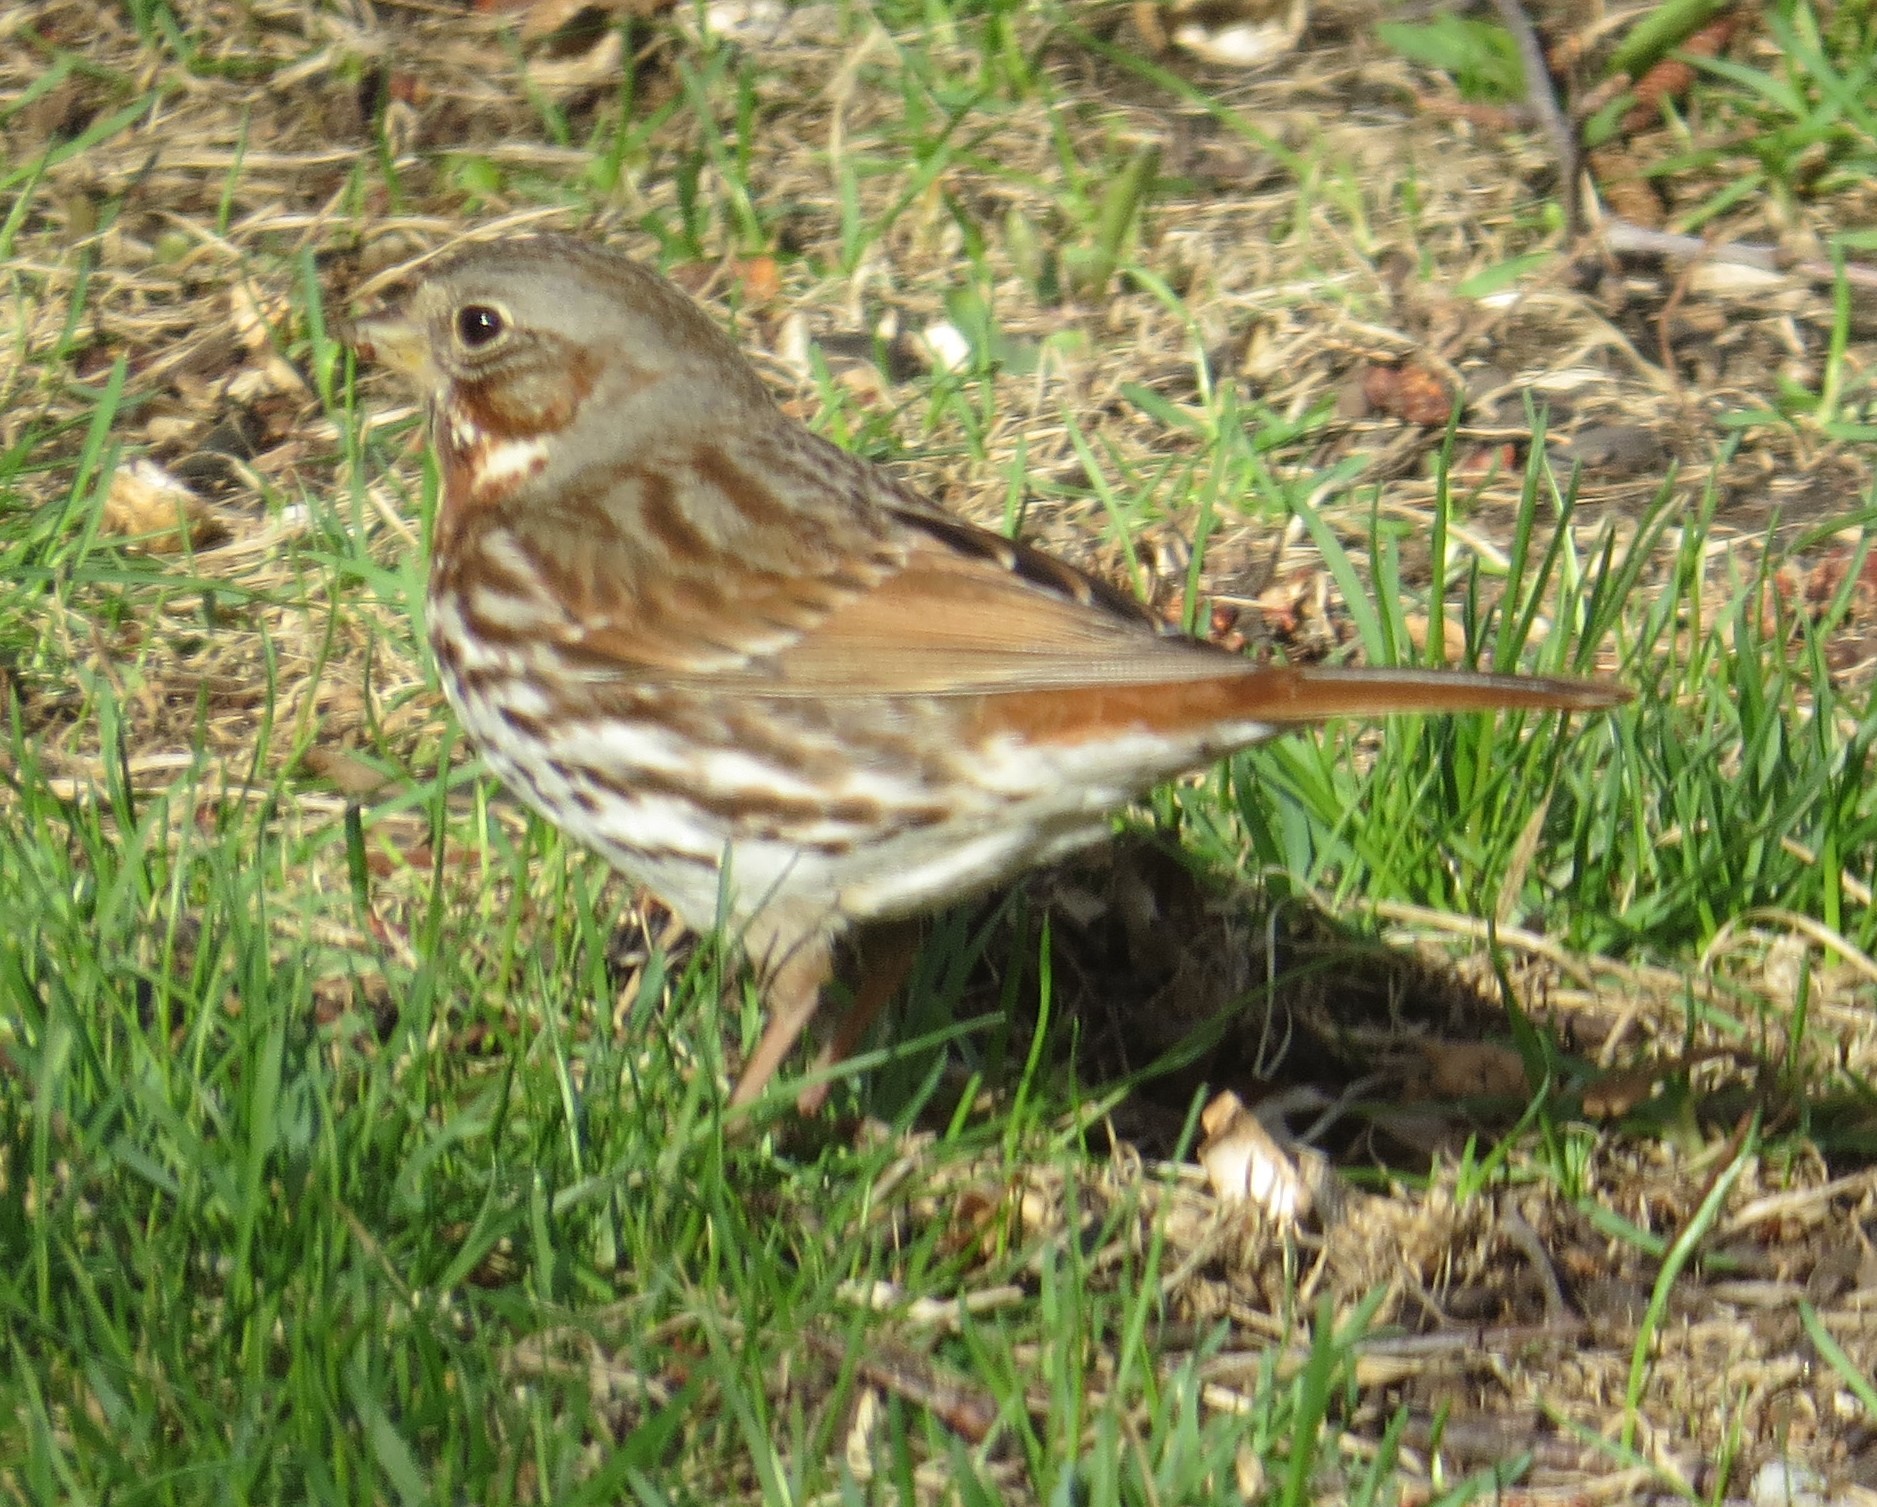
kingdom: Animalia
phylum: Chordata
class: Aves
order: Passeriformes
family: Passerellidae
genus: Passerella
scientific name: Passerella iliaca
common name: Fox sparrow
